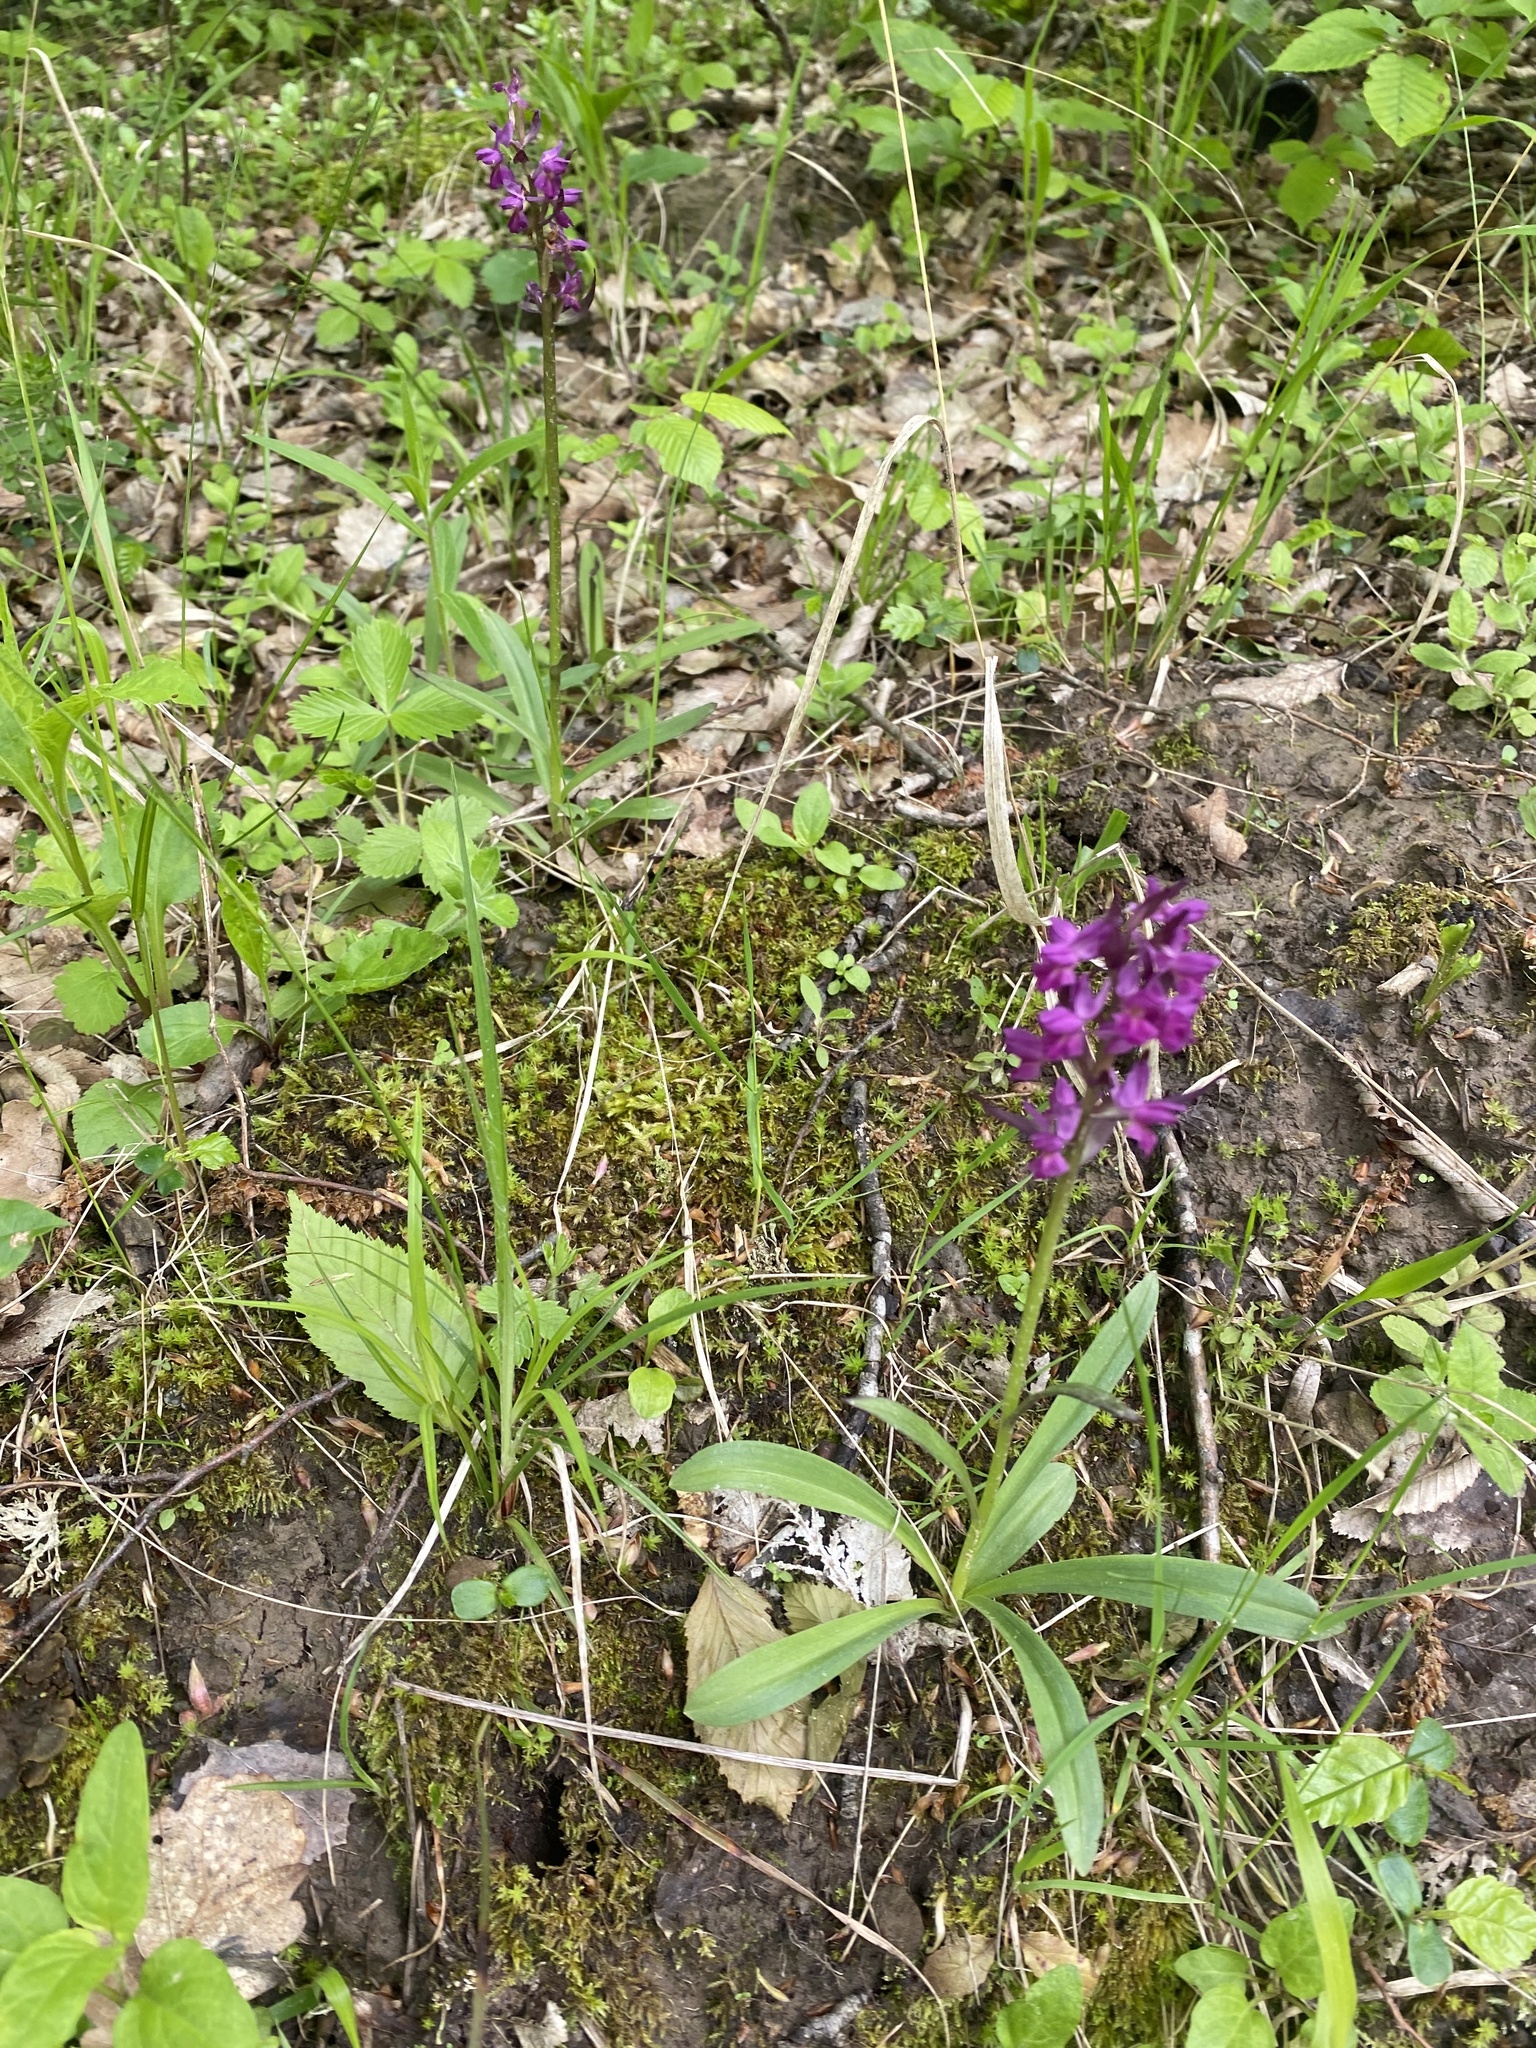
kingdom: Plantae
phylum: Tracheophyta
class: Liliopsida
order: Asparagales
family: Orchidaceae
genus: Dactylorhiza
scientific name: Dactylorhiza romana
